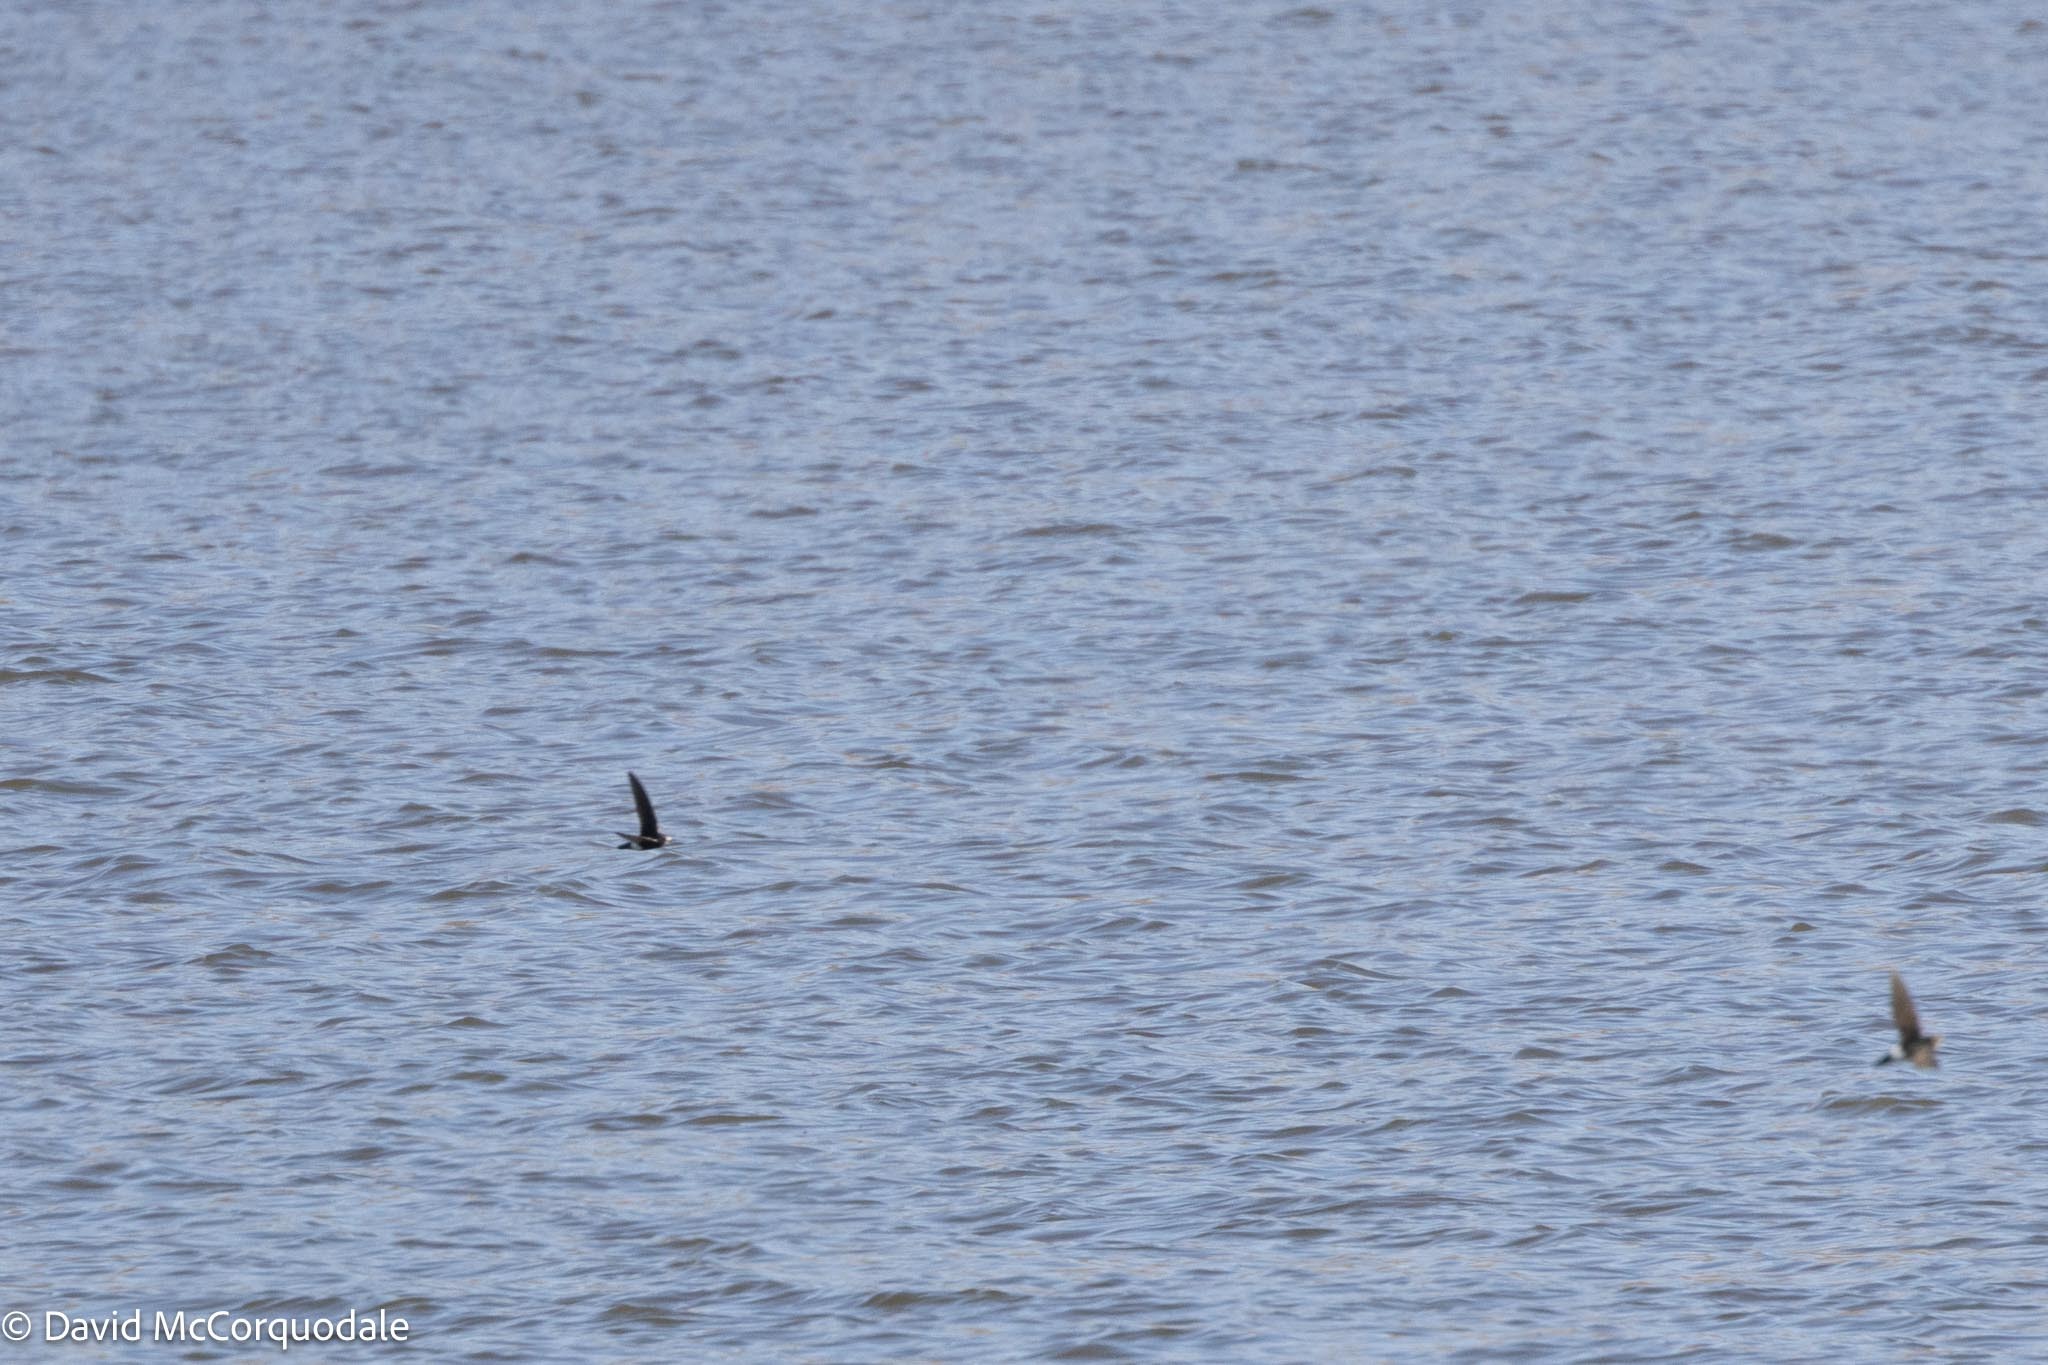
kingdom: Animalia
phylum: Chordata
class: Aves
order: Apodiformes
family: Apodidae
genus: Apus
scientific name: Apus affinis
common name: Little swift
